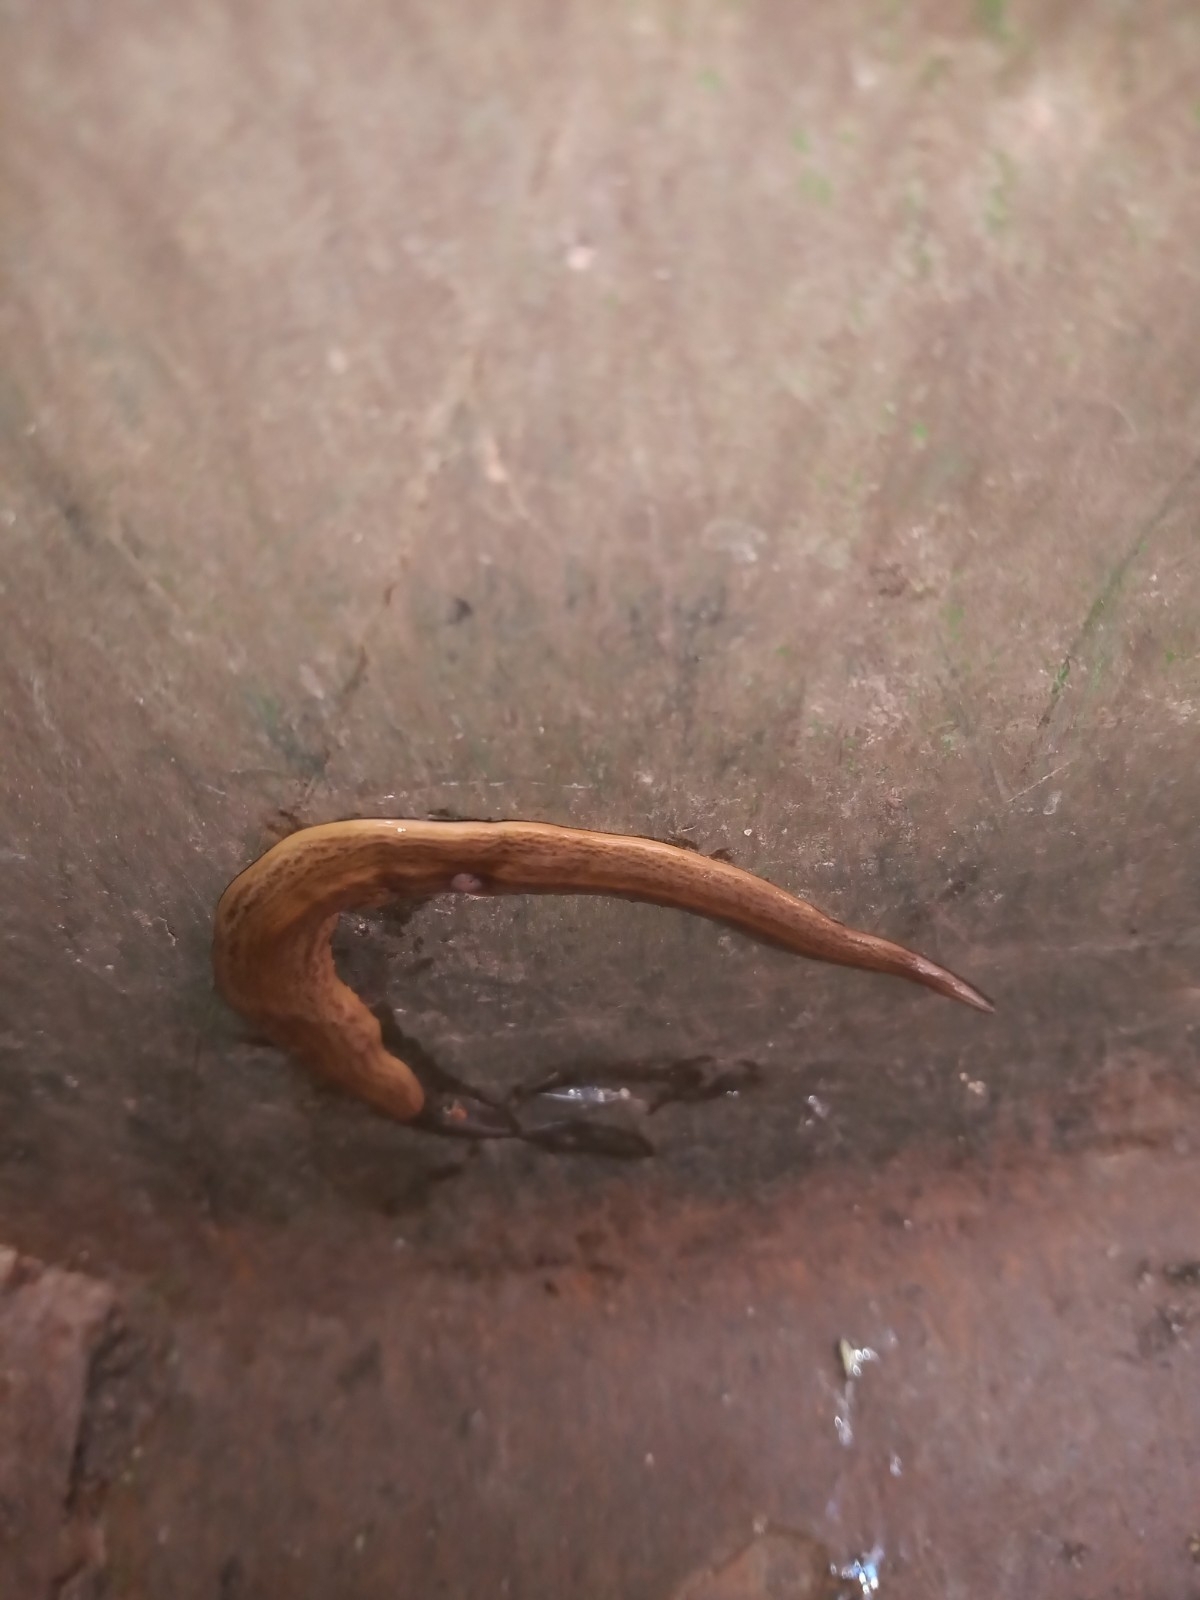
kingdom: Animalia
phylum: Platyhelminthes
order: Tricladida
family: Geoplanidae
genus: Obama
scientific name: Obama nungara
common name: Obama flatworm
